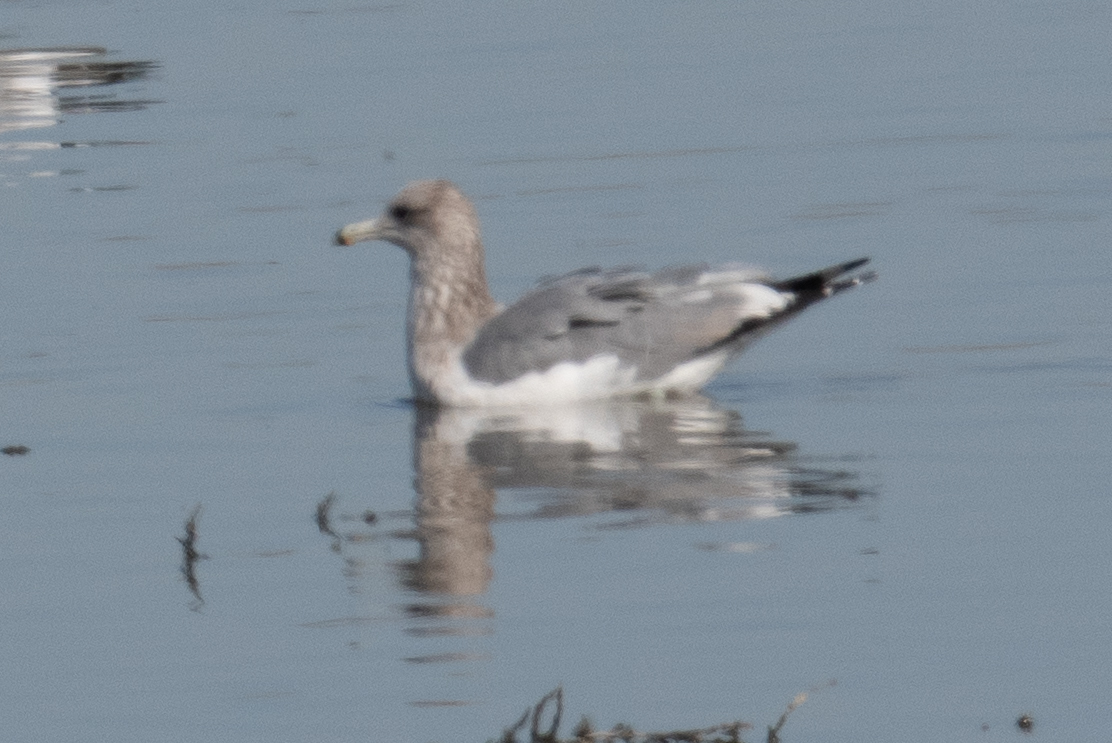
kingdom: Animalia
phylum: Chordata
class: Aves
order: Charadriiformes
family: Laridae
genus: Larus
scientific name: Larus californicus
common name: California gull
